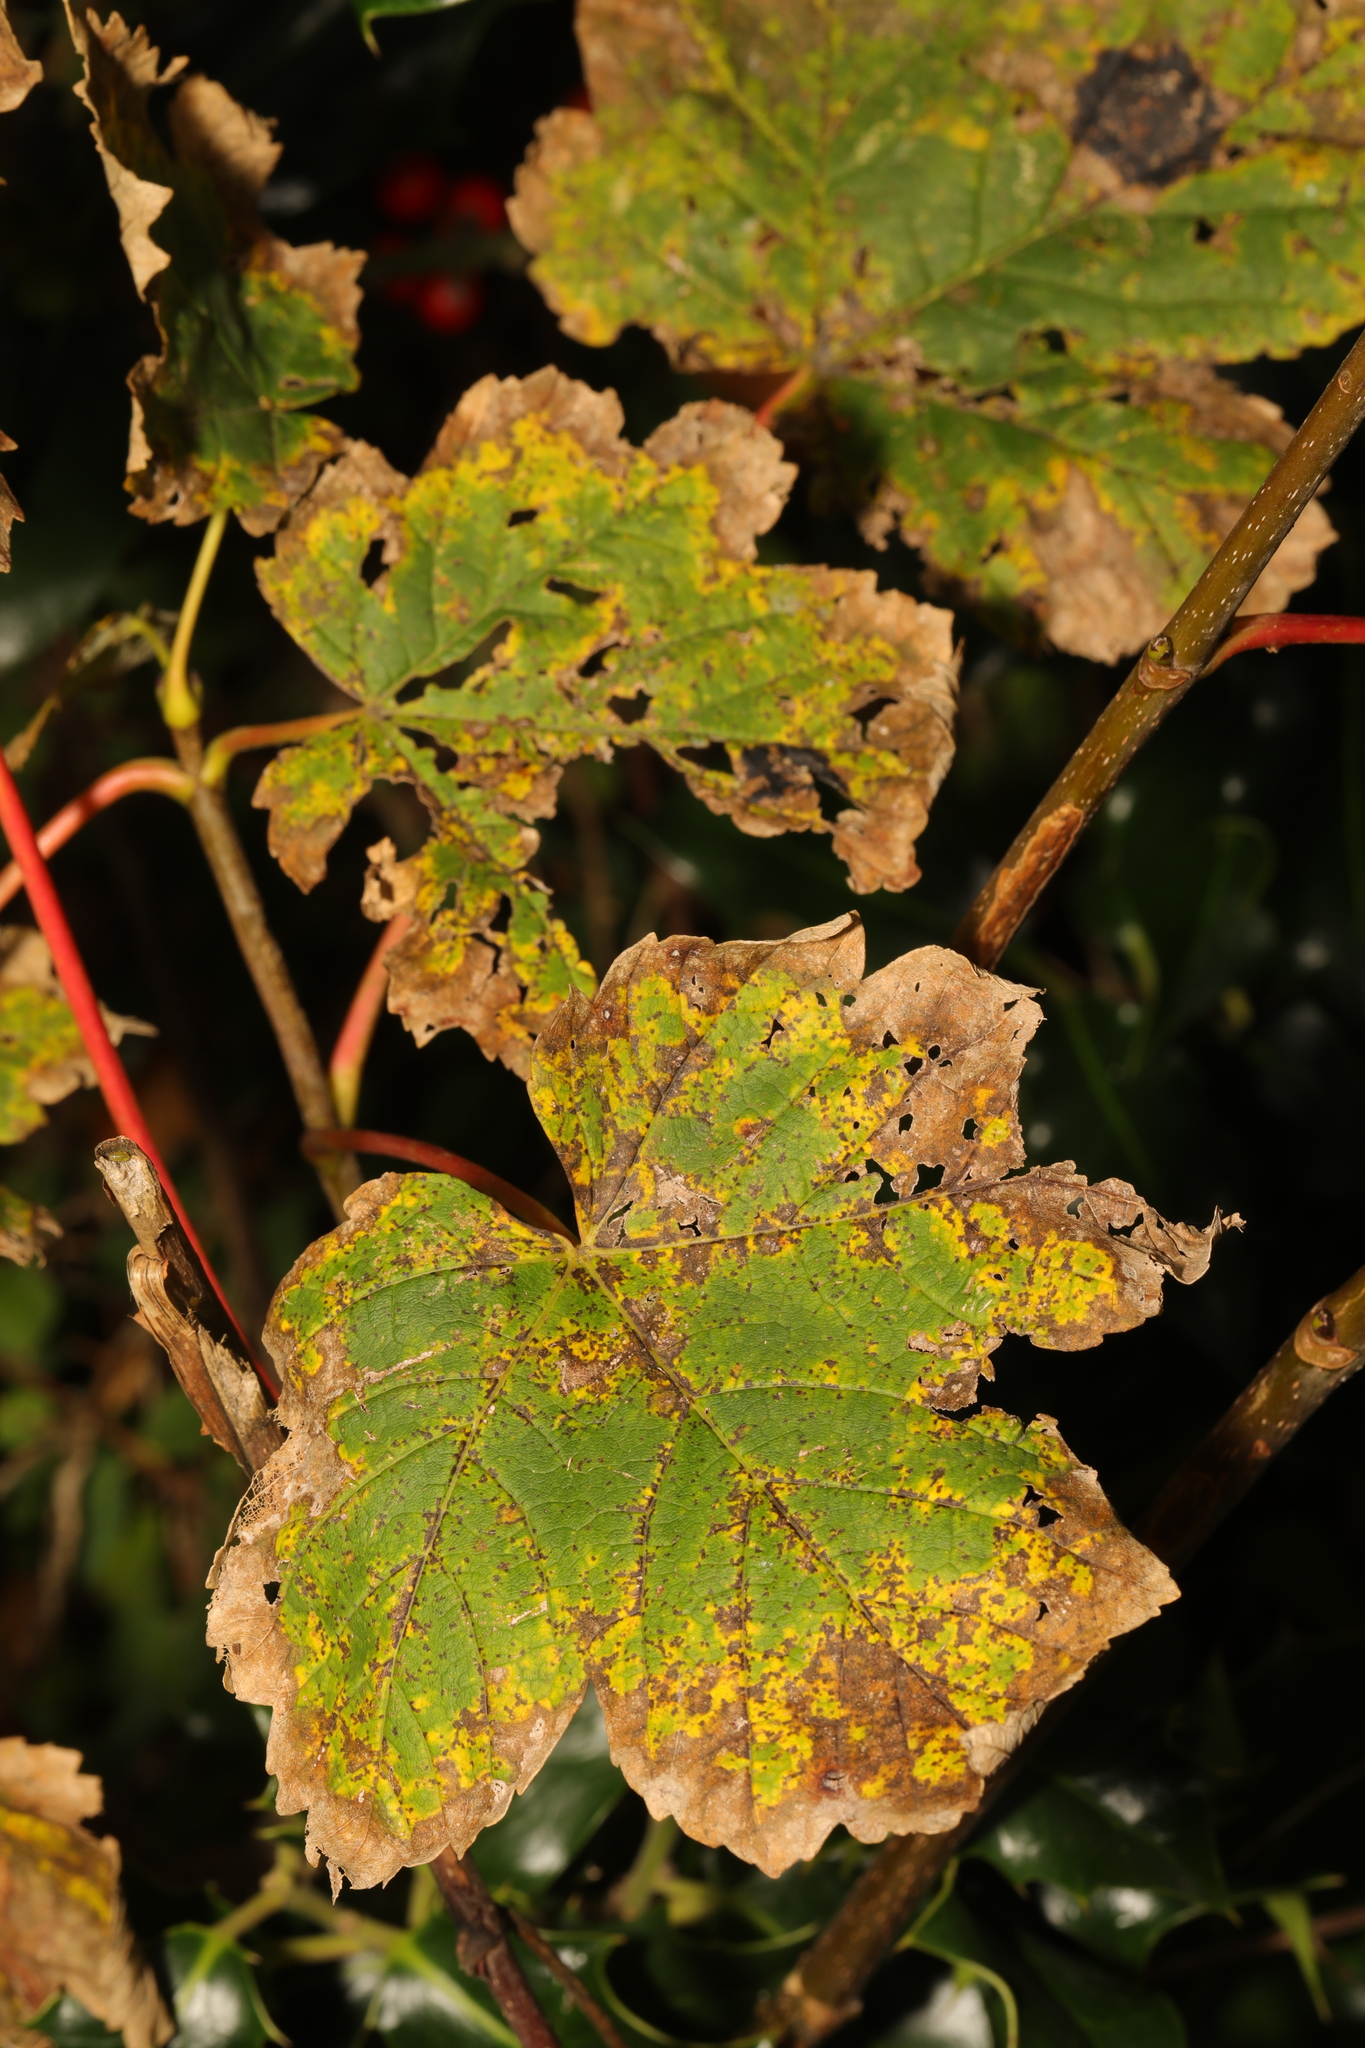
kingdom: Plantae
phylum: Tracheophyta
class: Magnoliopsida
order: Sapindales
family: Sapindaceae
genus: Acer
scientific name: Acer pseudoplatanus
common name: Sycamore
